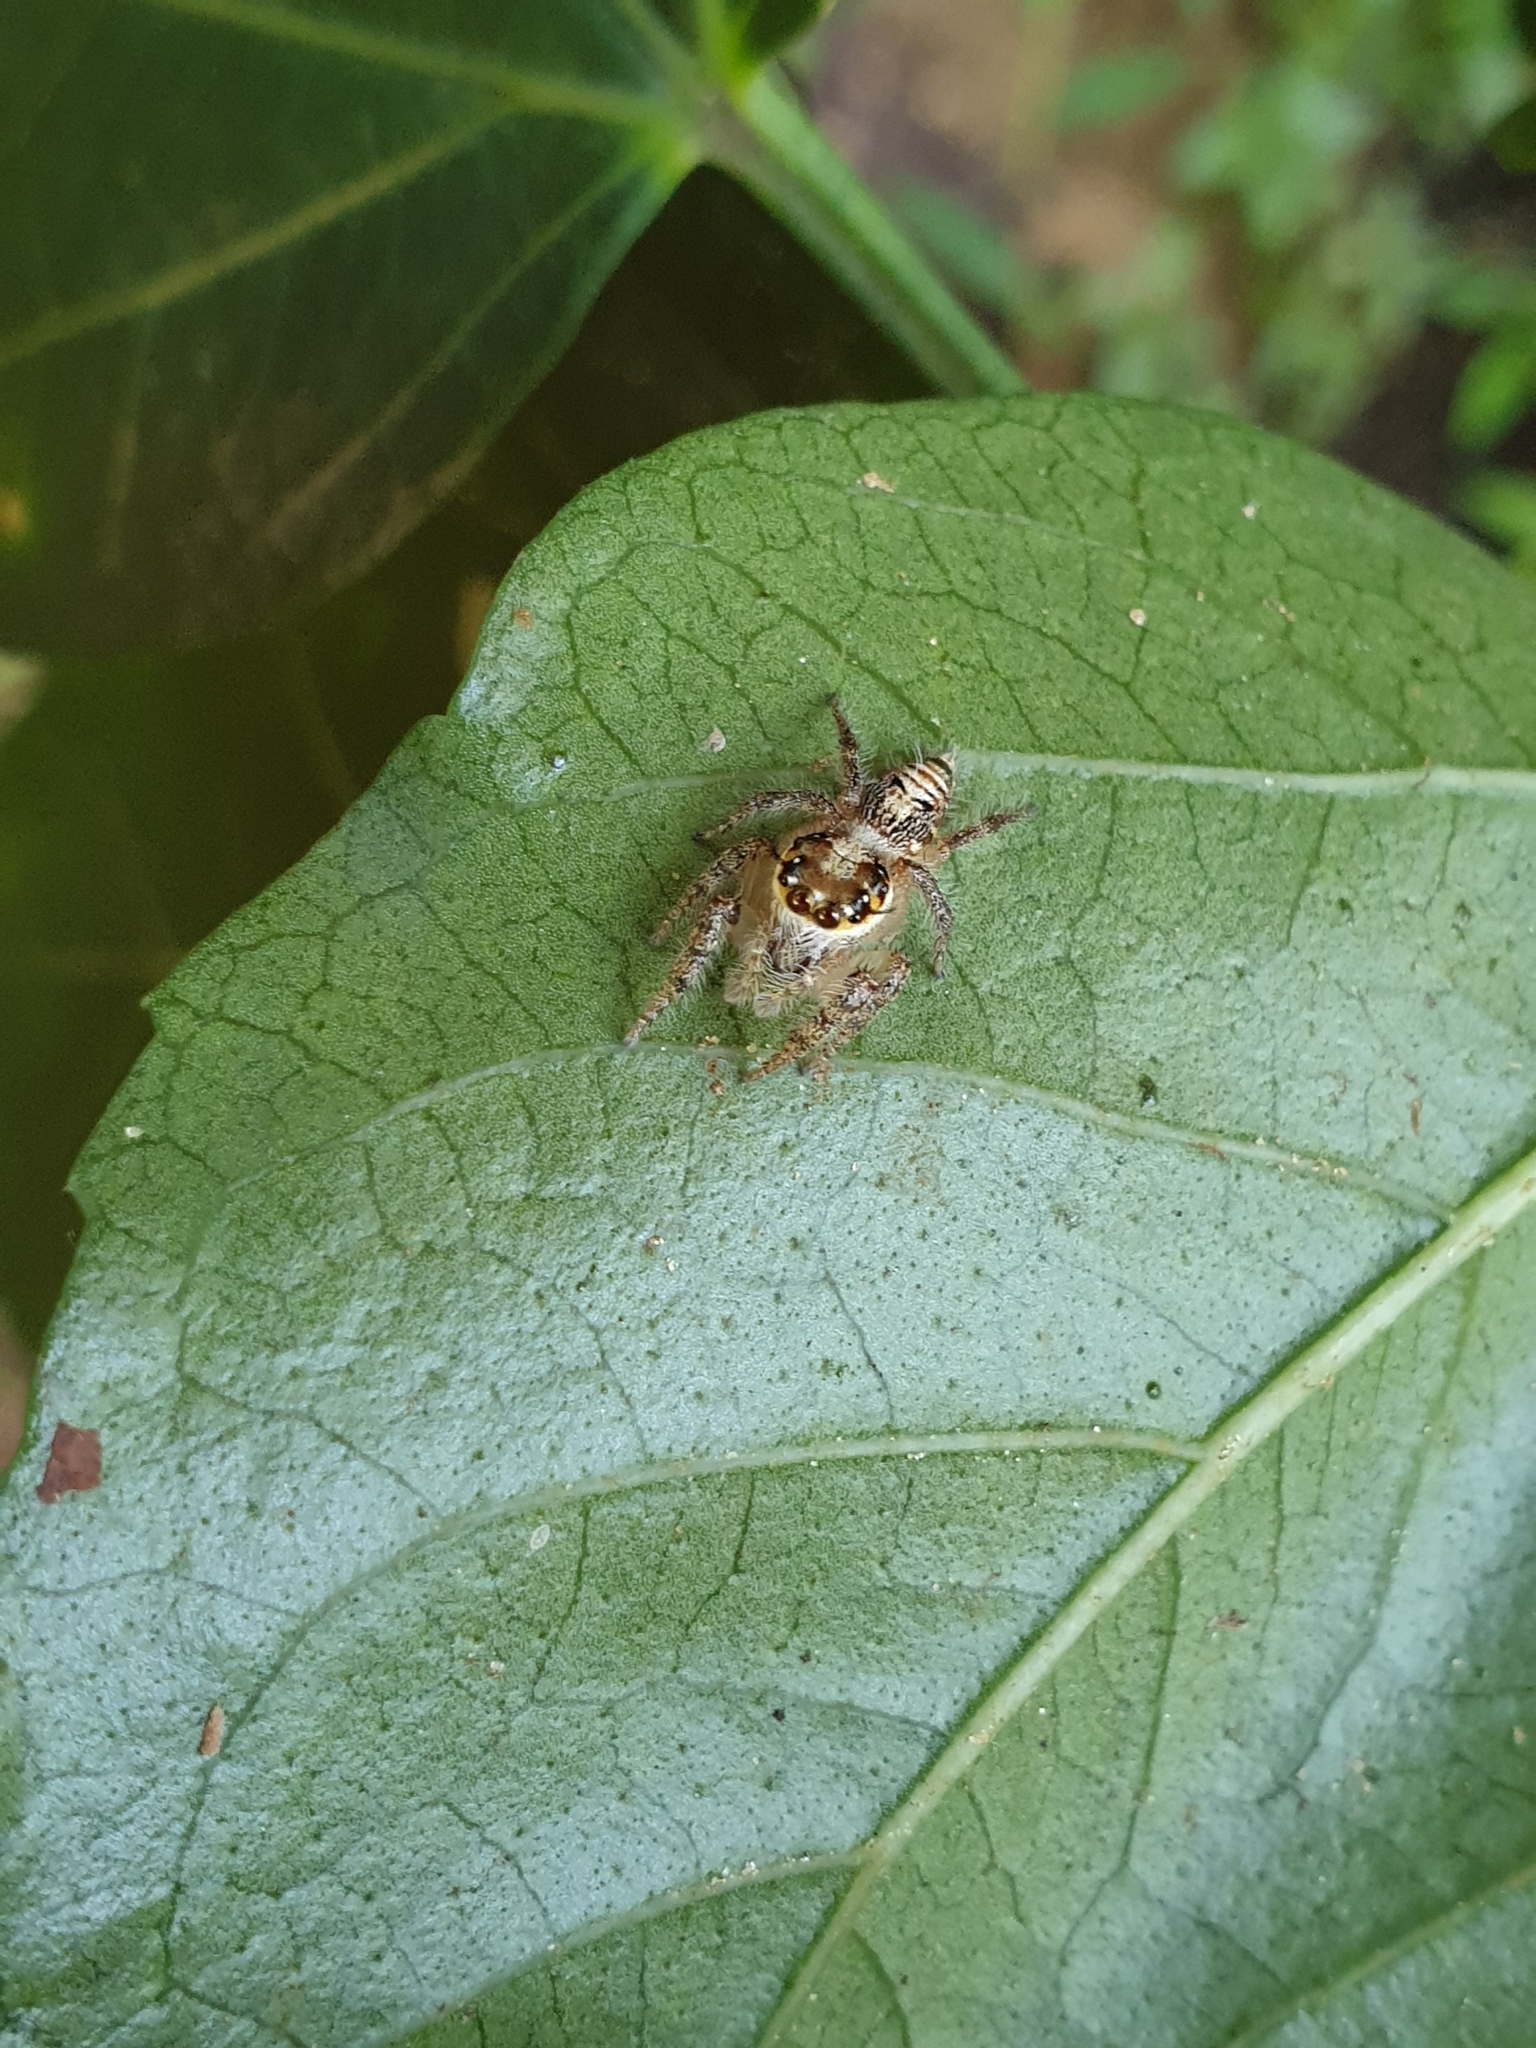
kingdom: Animalia
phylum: Arthropoda
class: Arachnida
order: Araneae
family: Salticidae
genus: Hyllus
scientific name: Hyllus semicupreus
